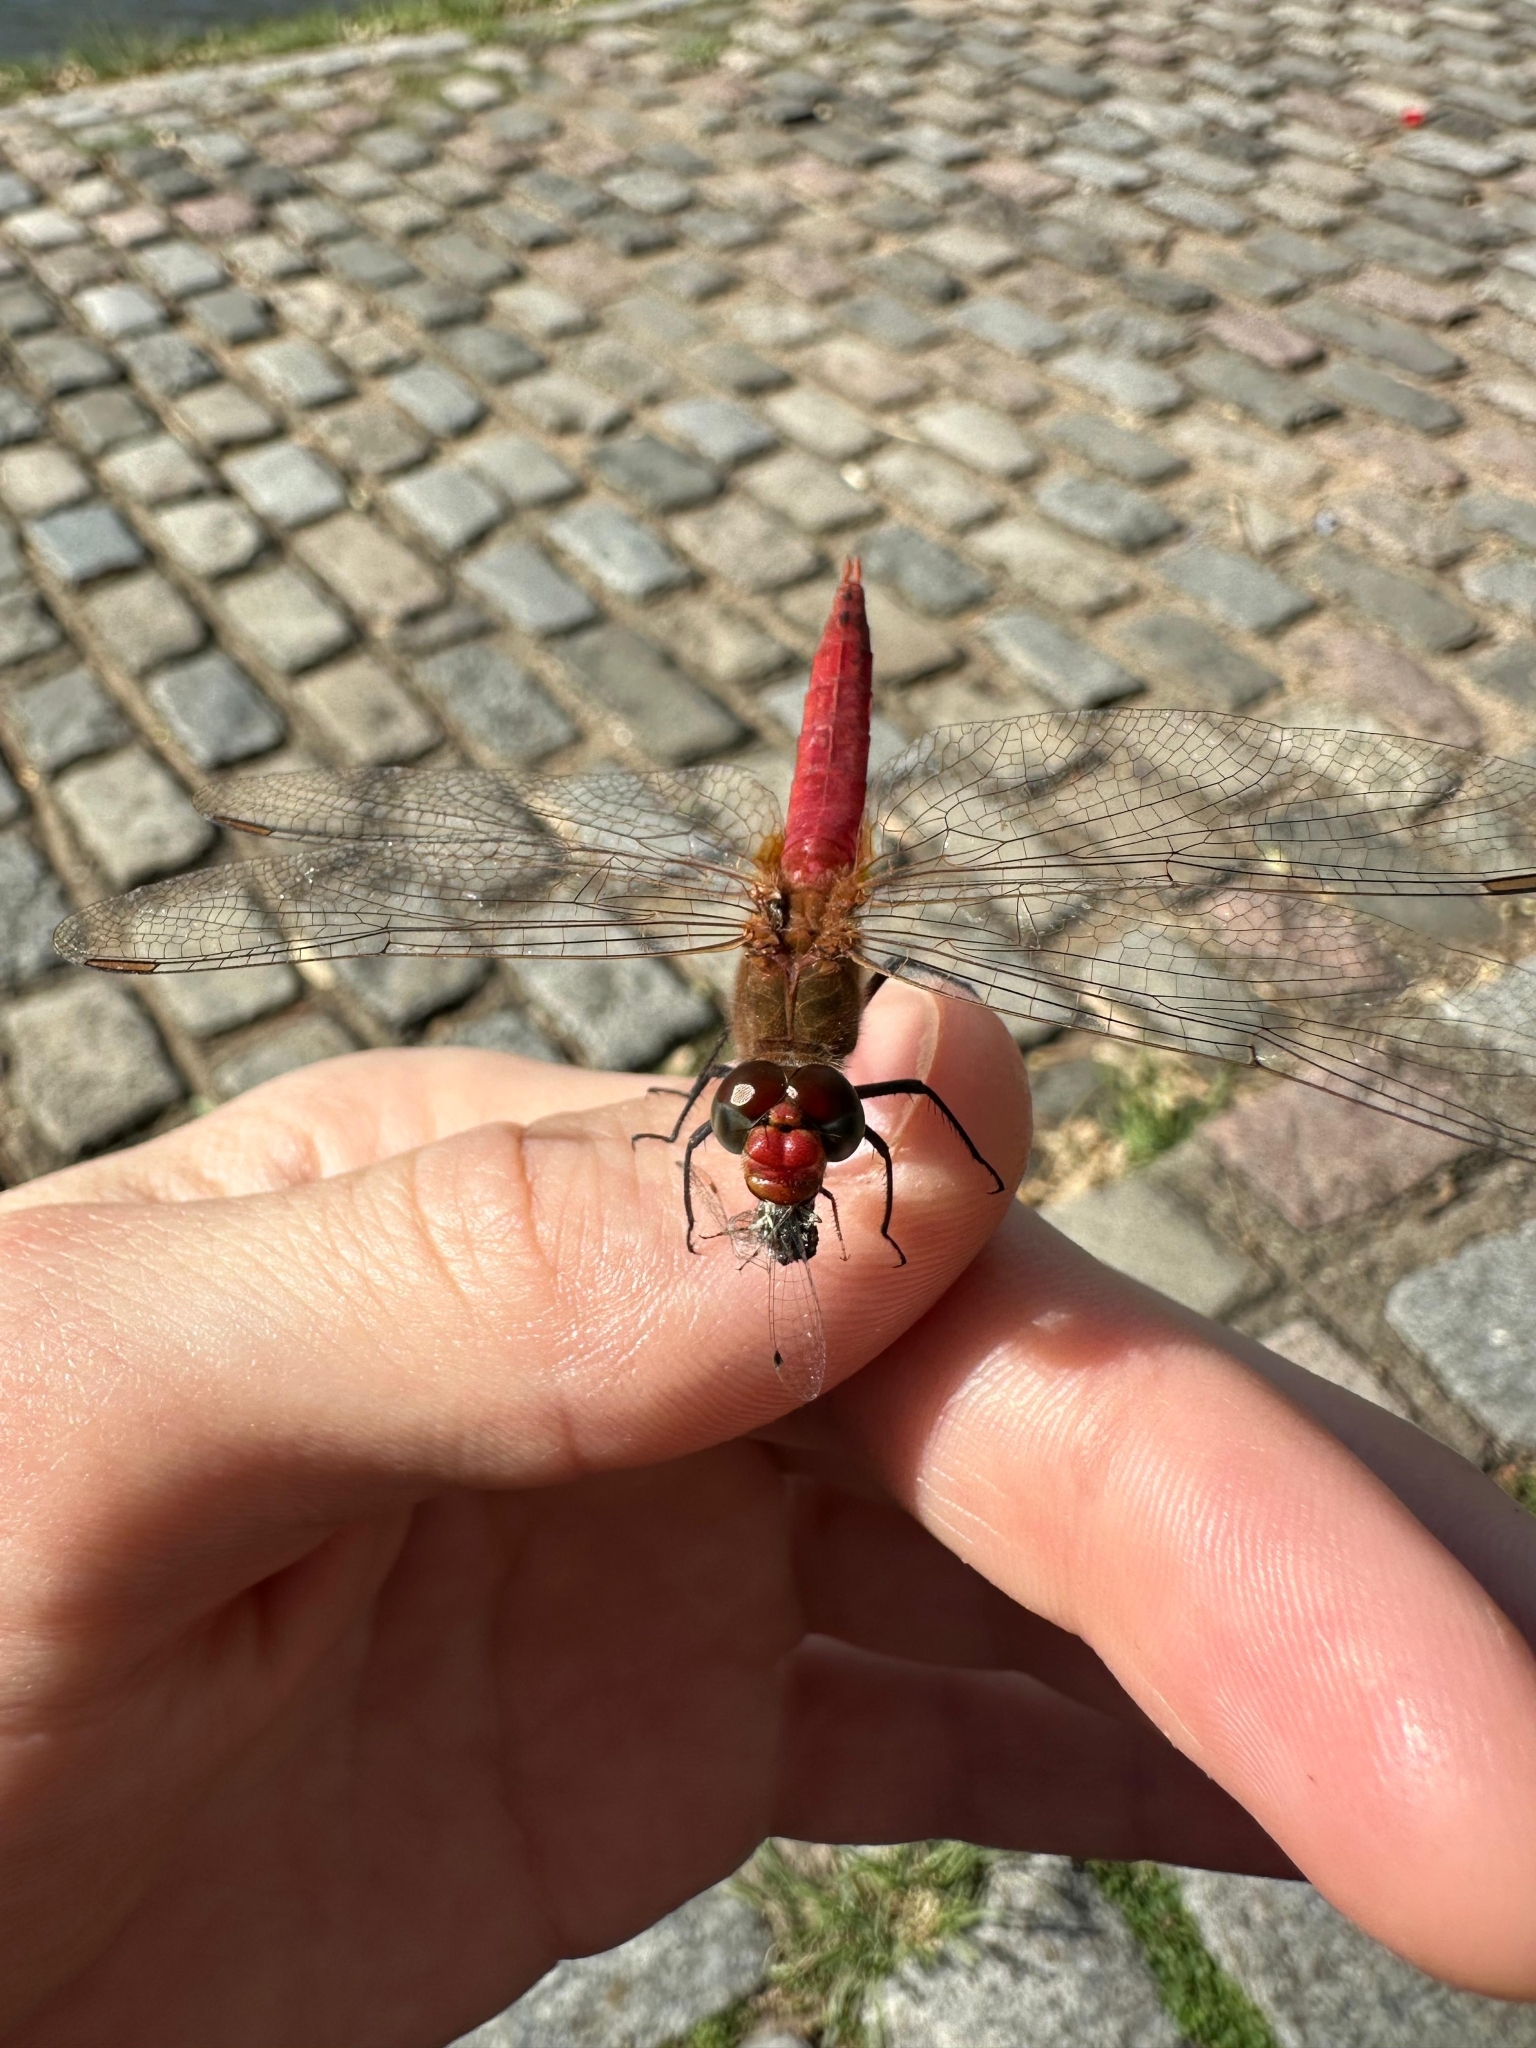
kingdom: Animalia
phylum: Arthropoda
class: Insecta
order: Odonata
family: Libellulidae
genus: Brachymesia
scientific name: Brachymesia furcata
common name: Red-taled pennant
